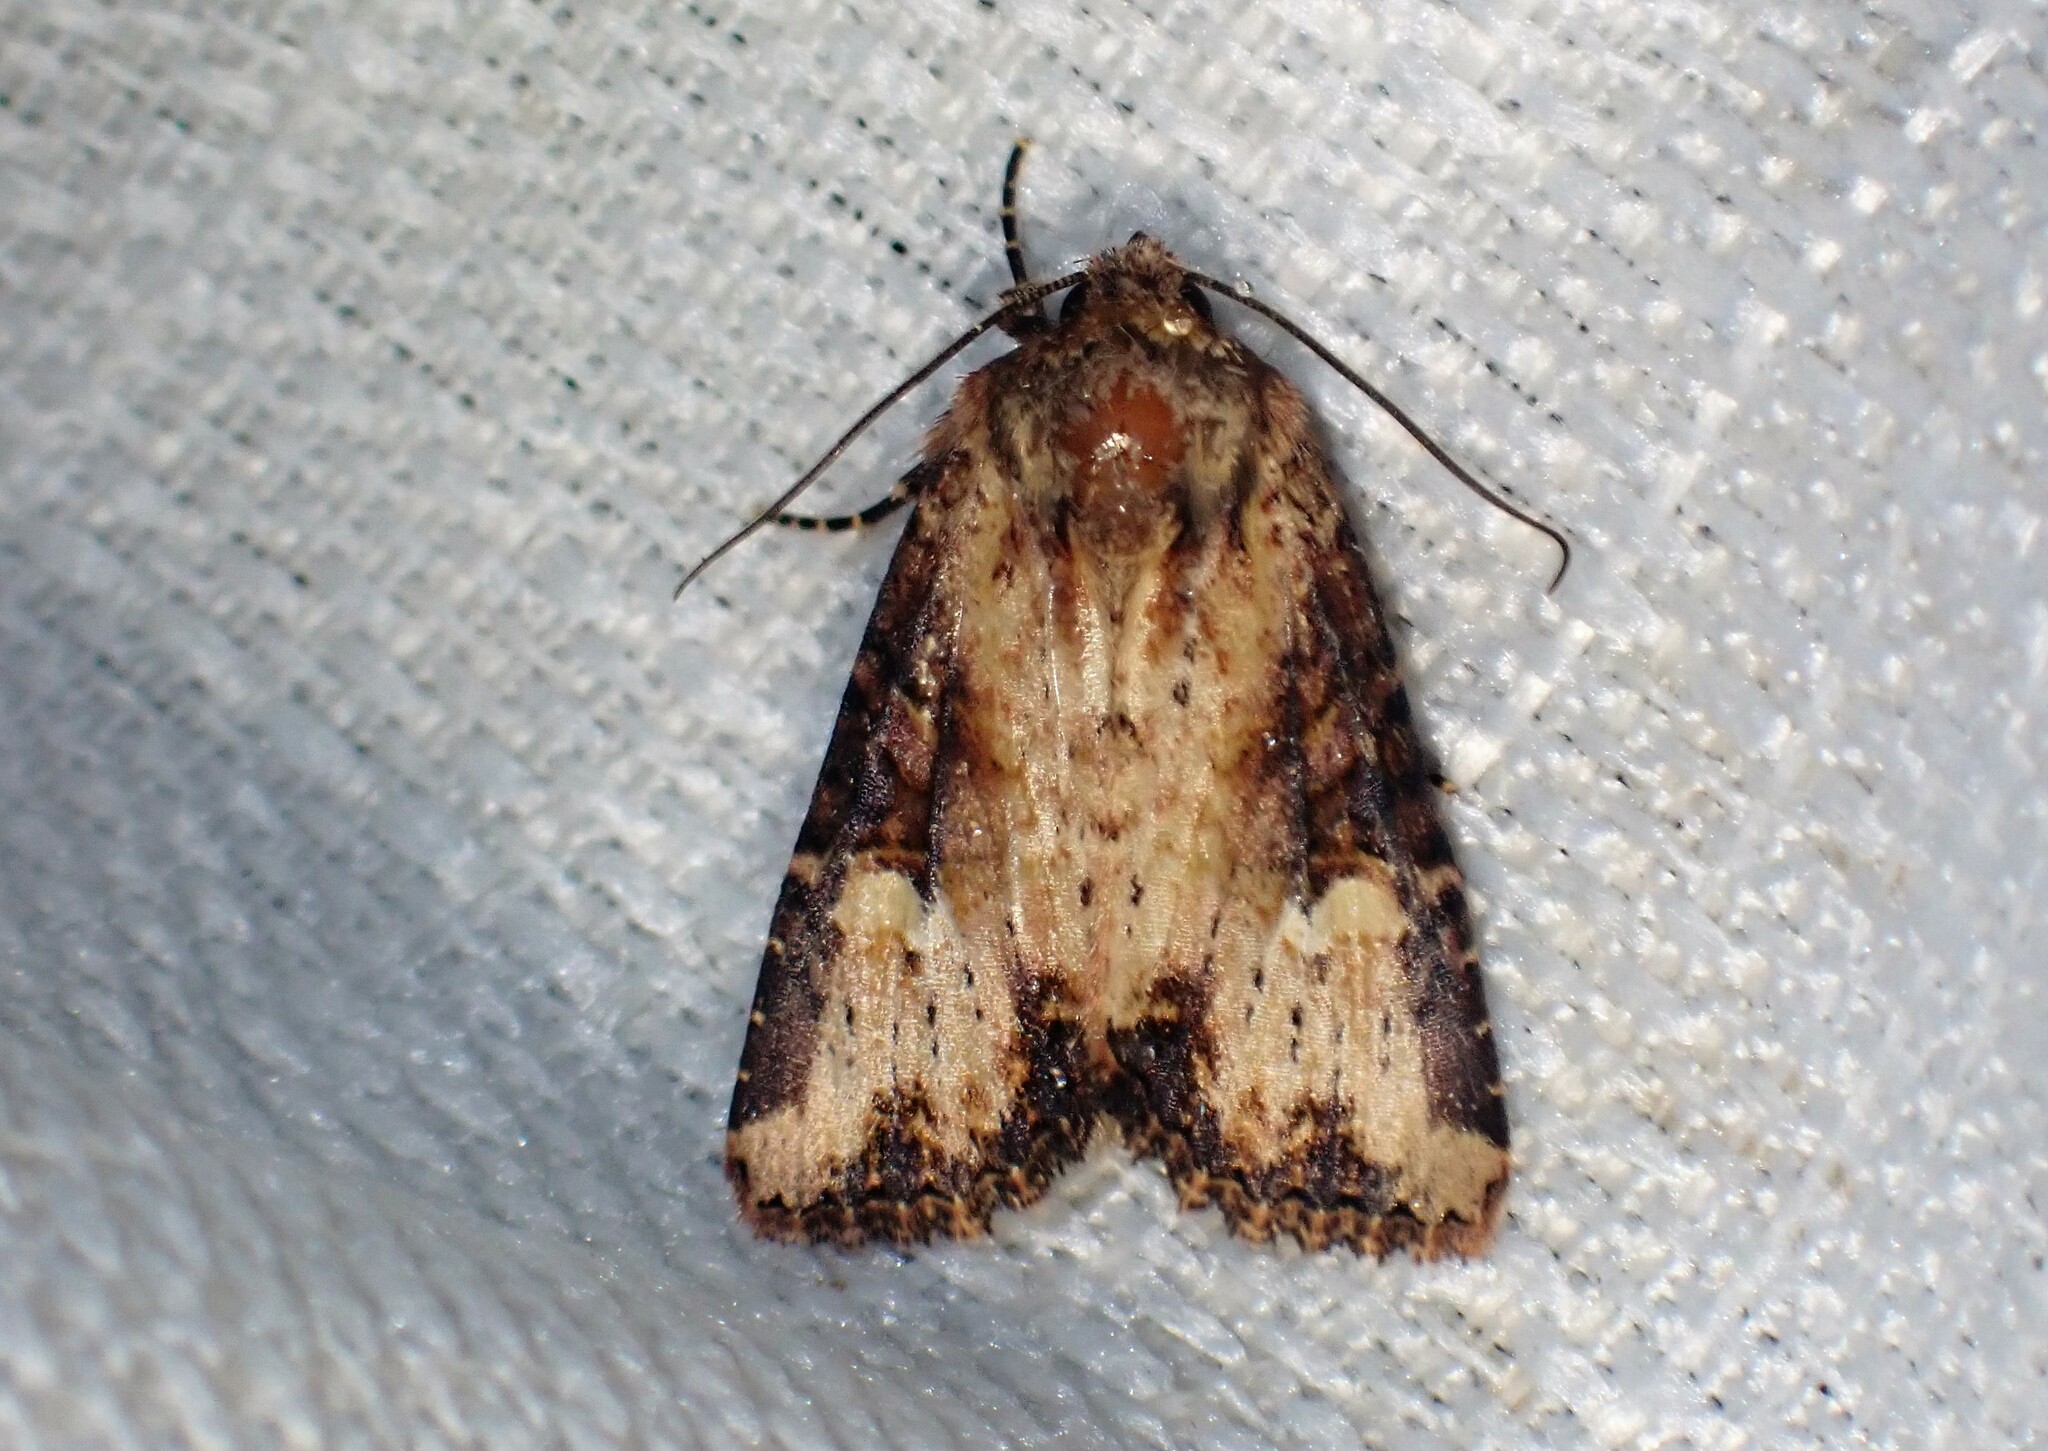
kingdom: Animalia
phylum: Arthropoda
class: Insecta
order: Lepidoptera
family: Noctuidae
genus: Mesapamea
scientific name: Mesapamea storai
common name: Owlet moth
